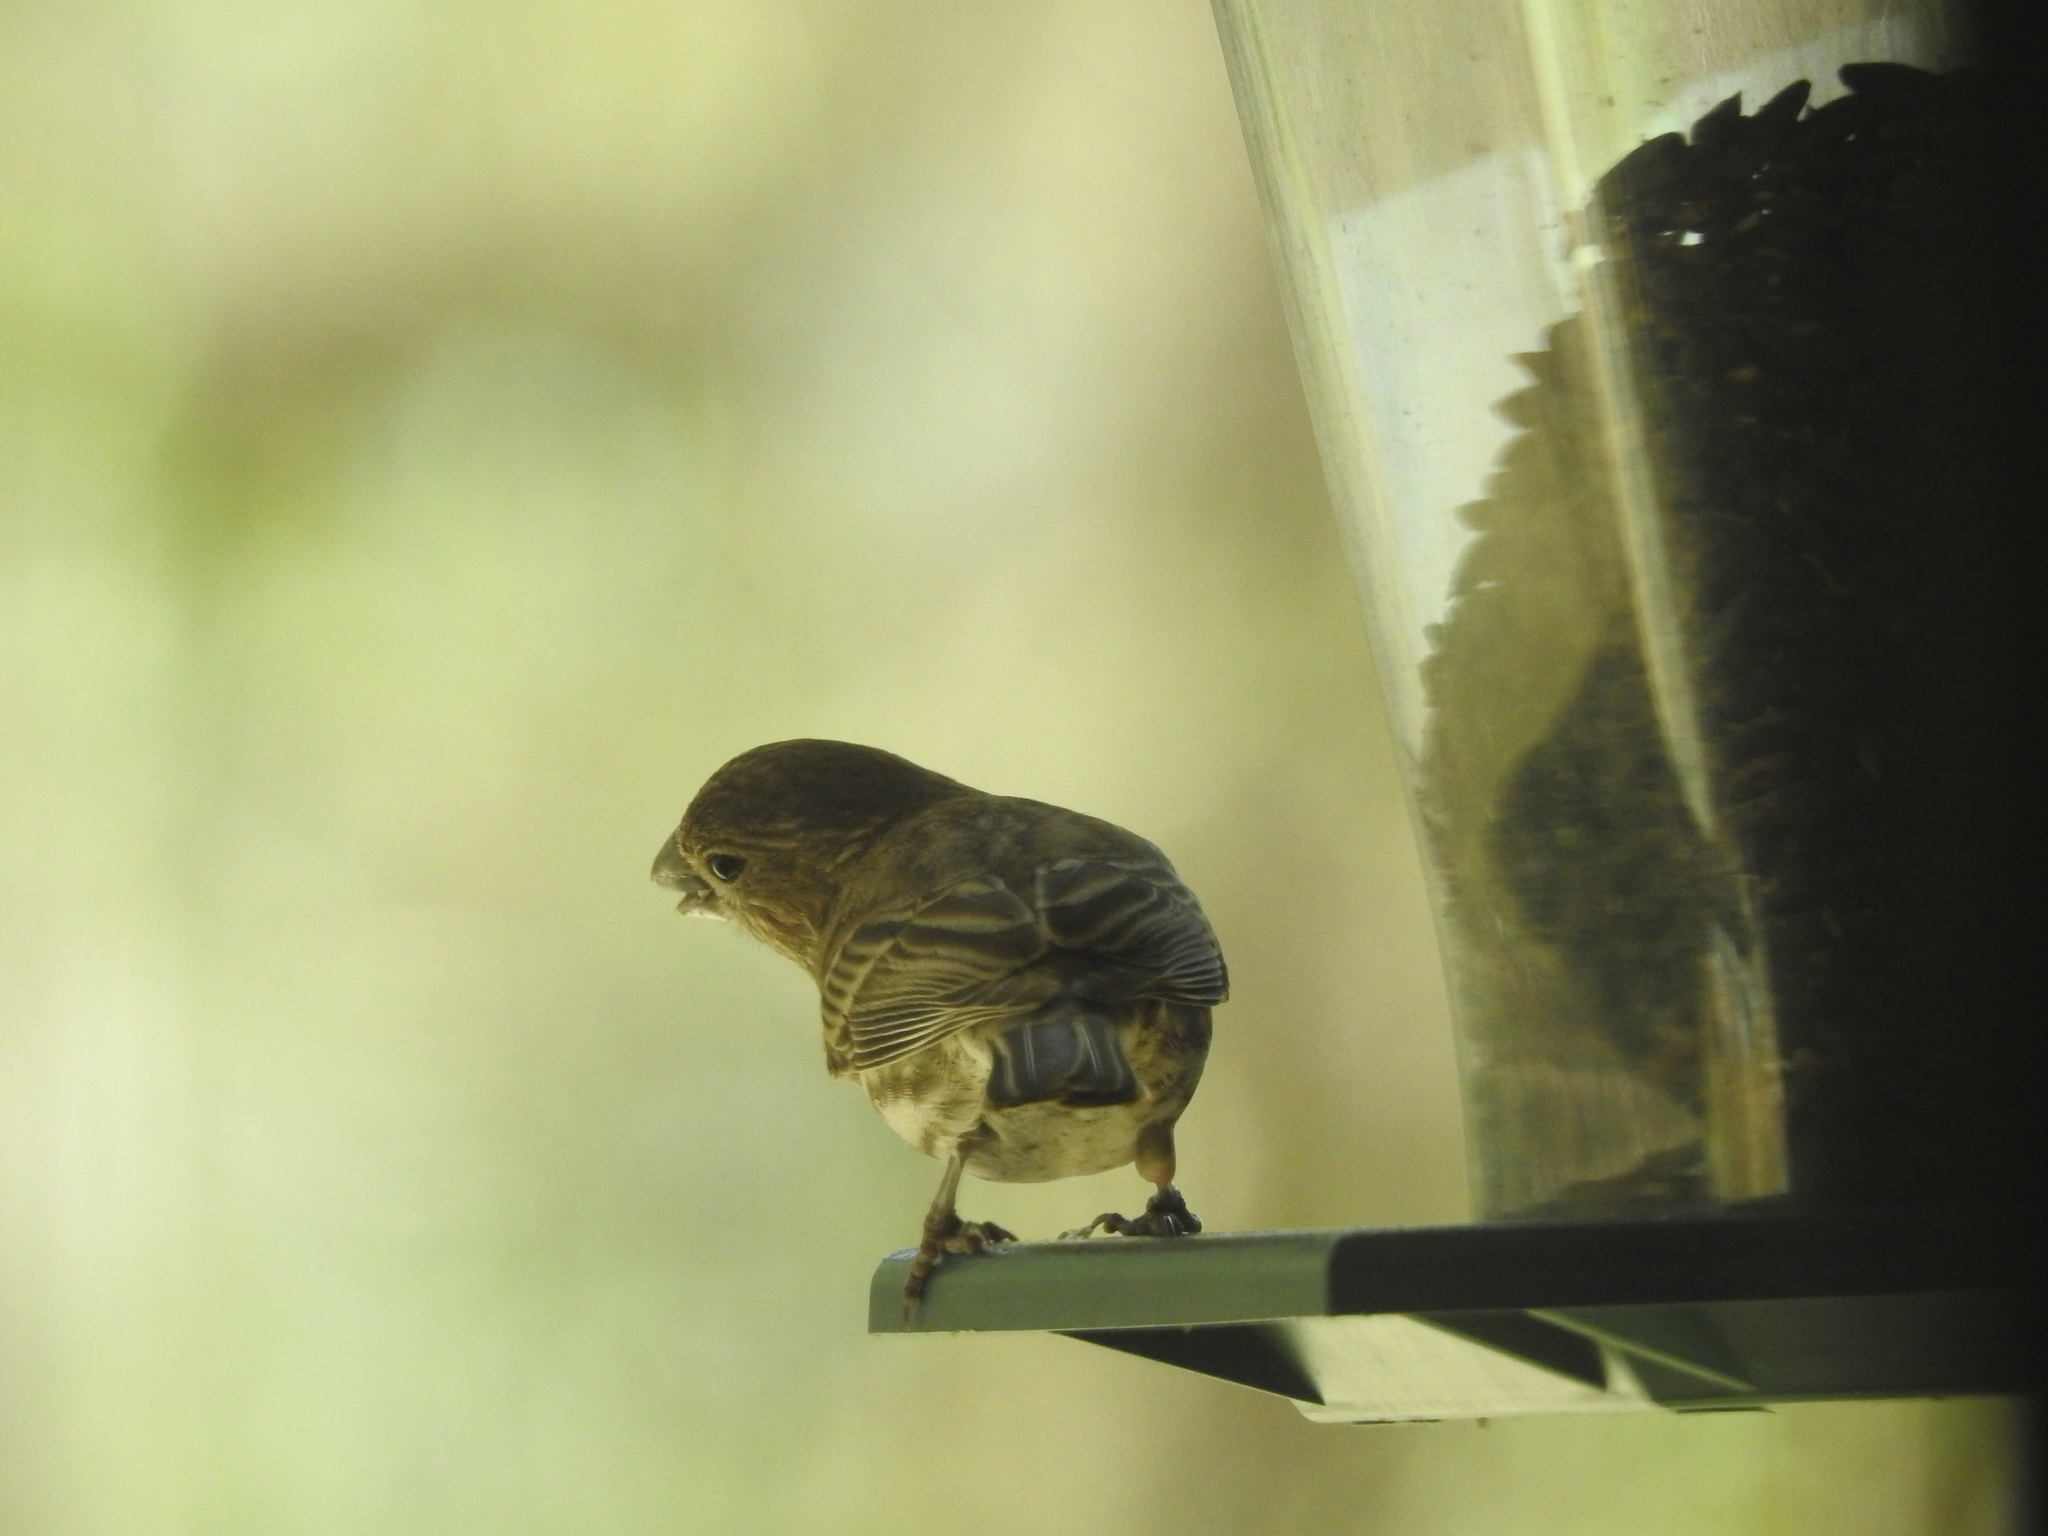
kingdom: Animalia
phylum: Chordata
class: Aves
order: Passeriformes
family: Fringillidae
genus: Haemorhous
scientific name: Haemorhous mexicanus
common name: House finch
